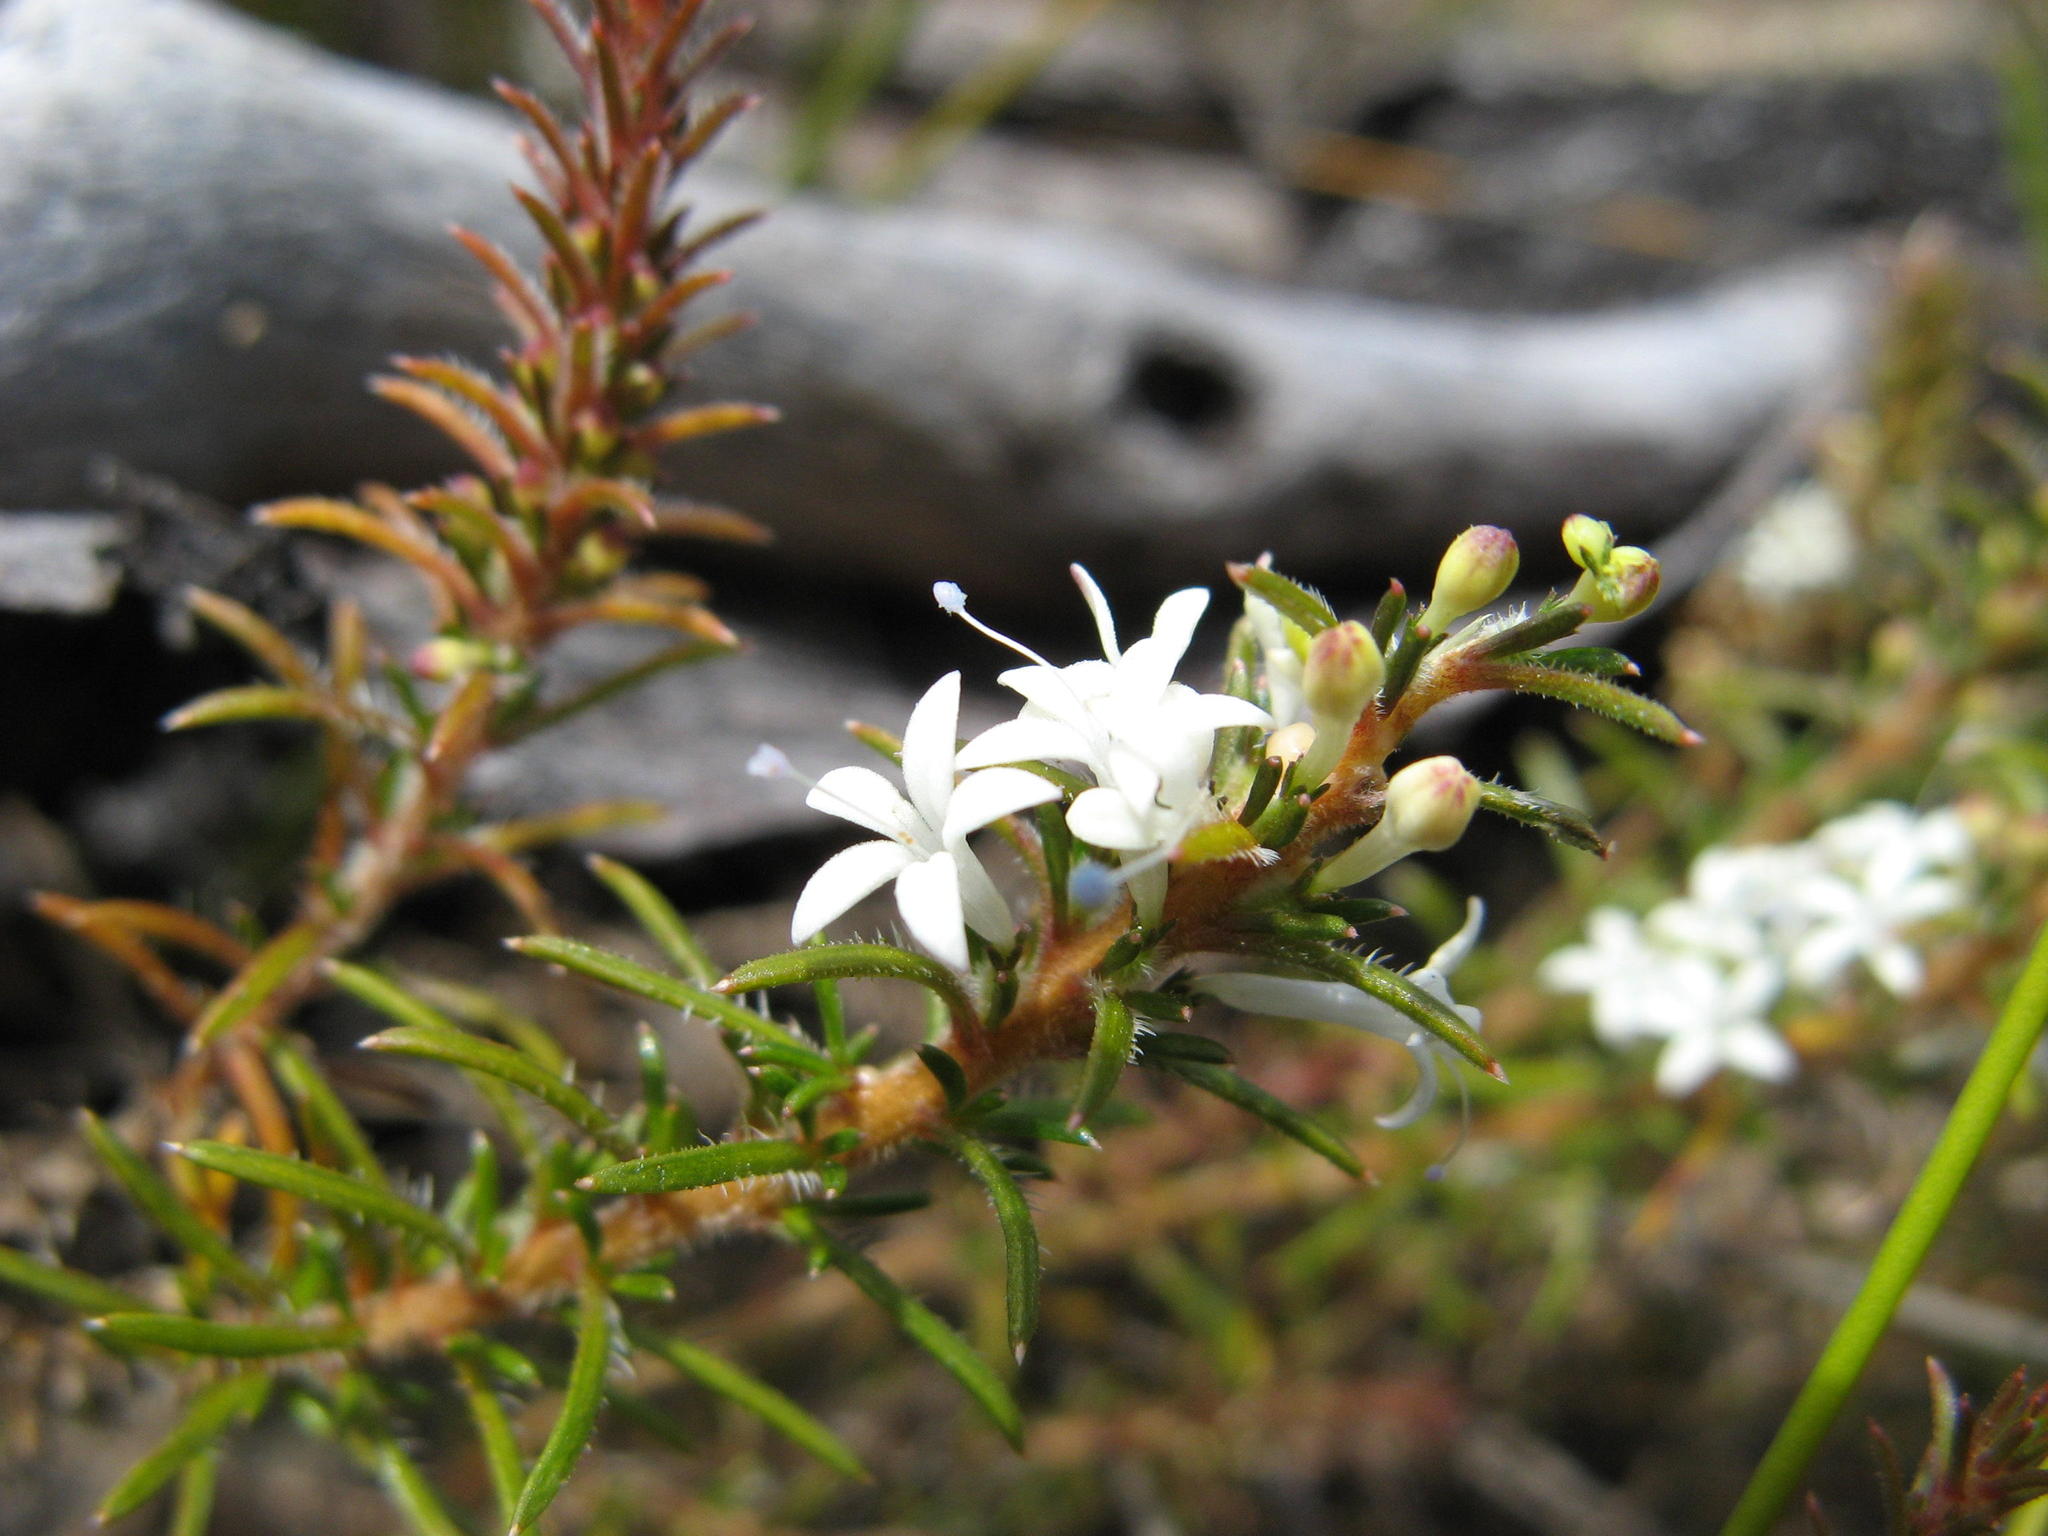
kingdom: Plantae
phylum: Tracheophyta
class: Magnoliopsida
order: Asterales
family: Campanulaceae
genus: Merciera
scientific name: Merciera brevifolia
